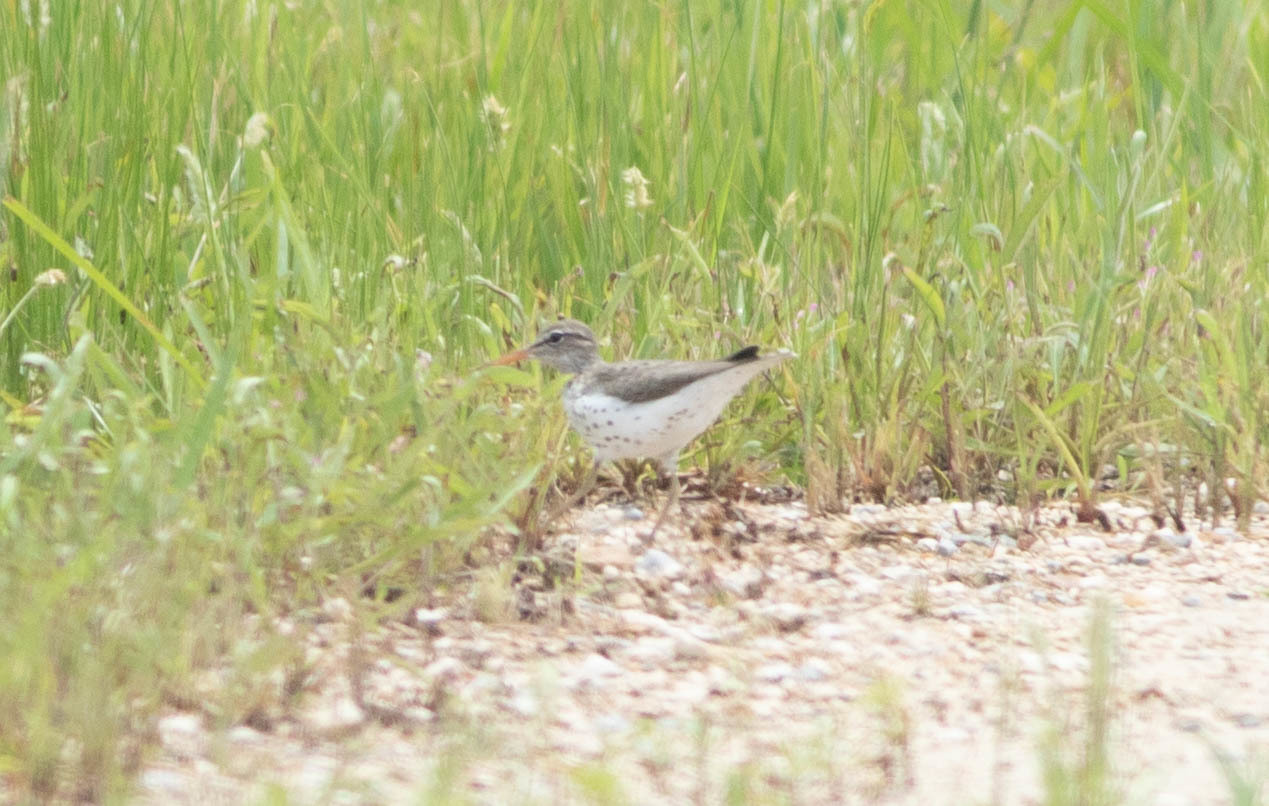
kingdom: Animalia
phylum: Chordata
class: Aves
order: Charadriiformes
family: Scolopacidae
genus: Actitis
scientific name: Actitis macularius
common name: Spotted sandpiper
